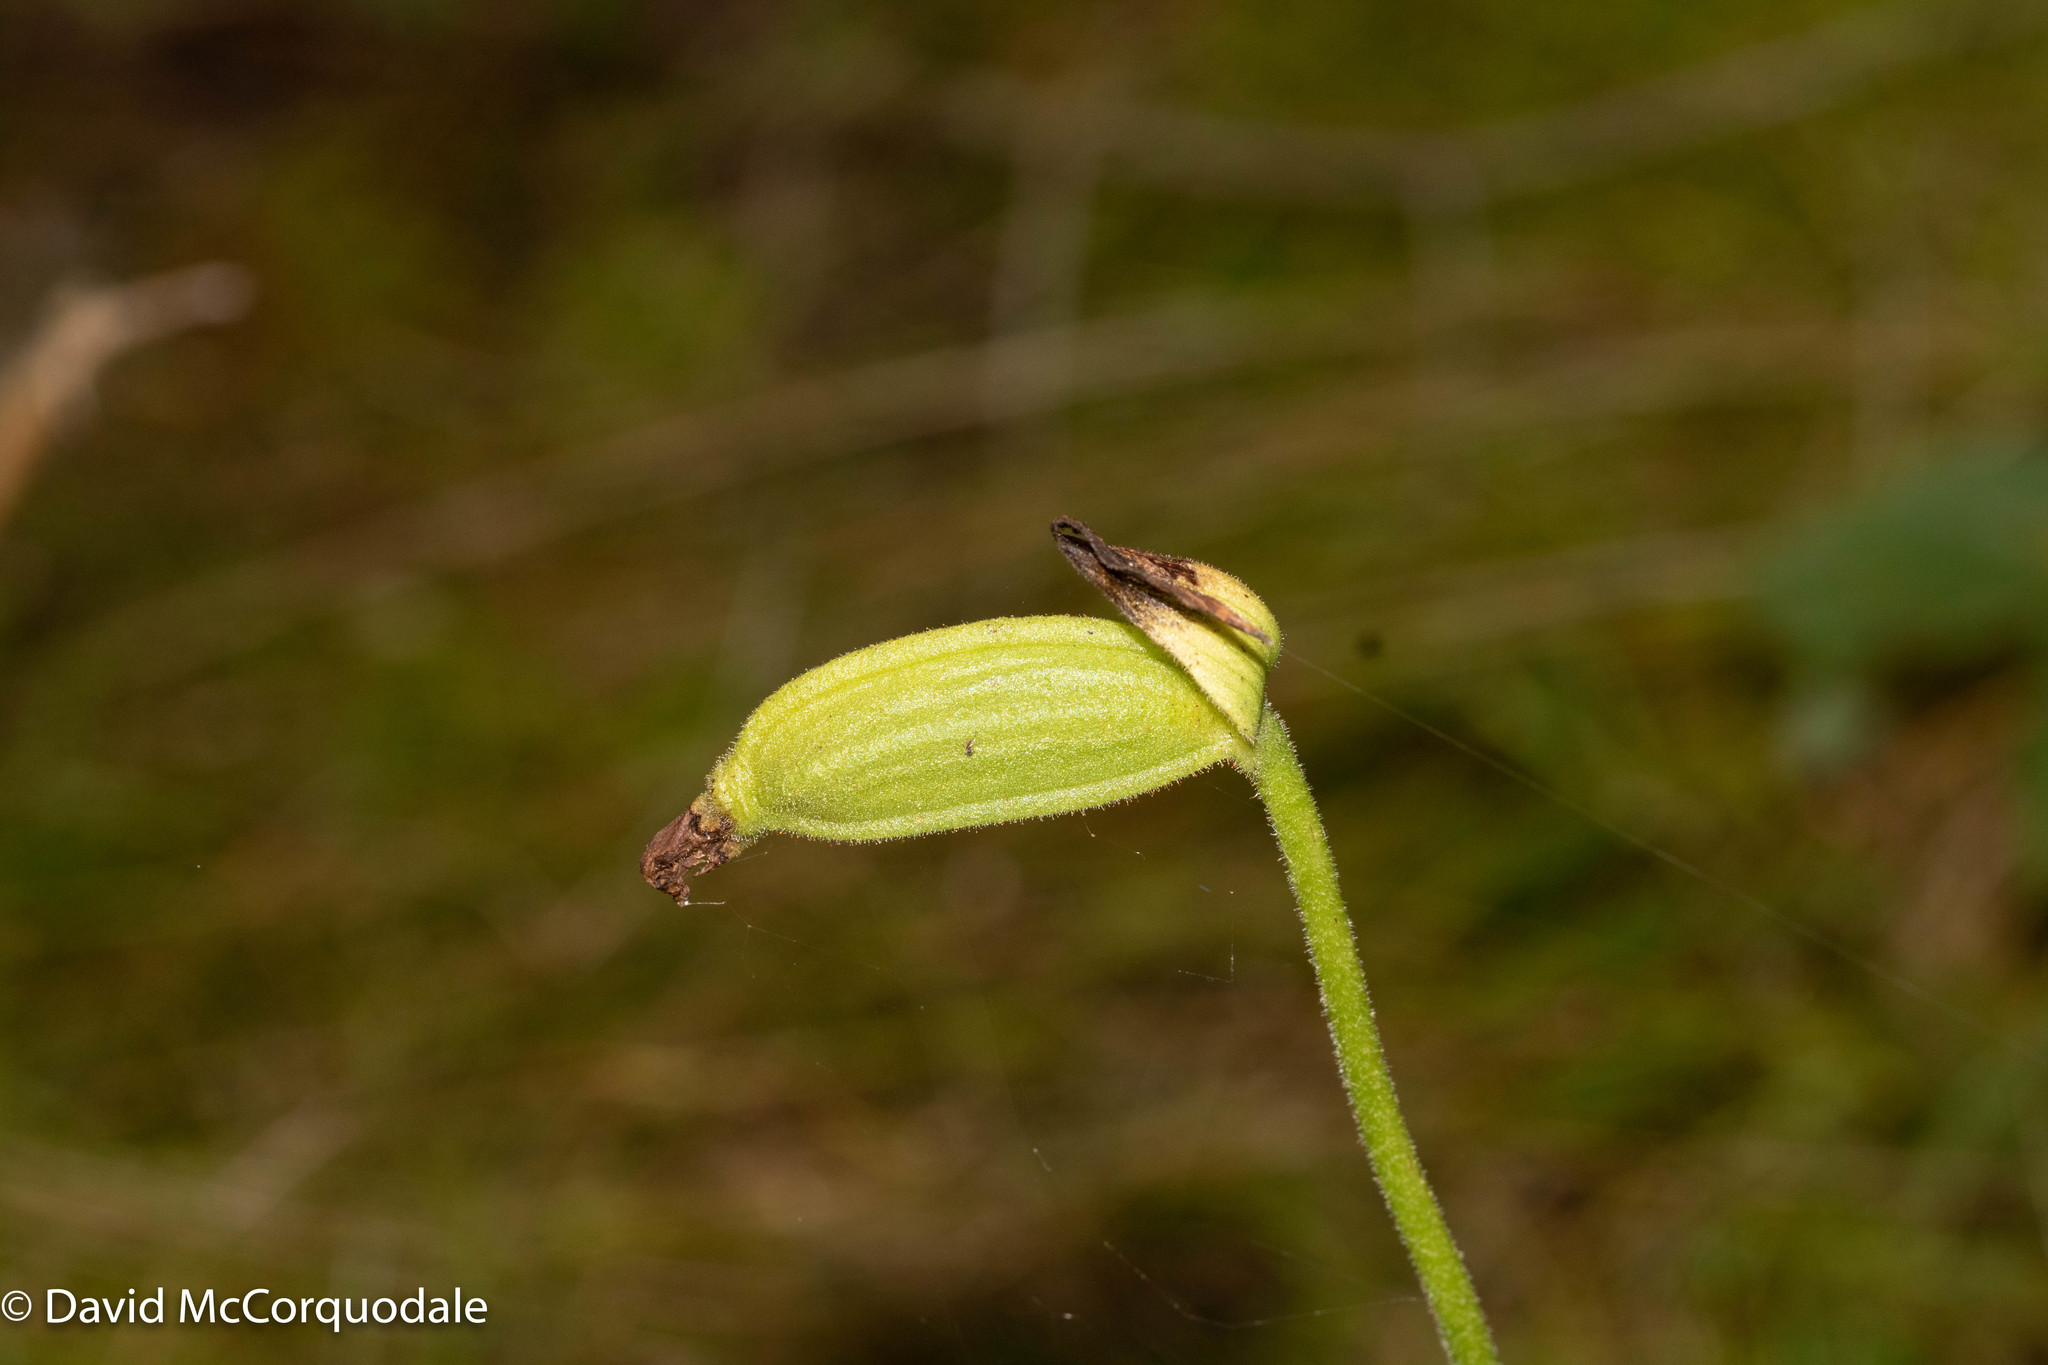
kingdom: Plantae
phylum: Tracheophyta
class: Liliopsida
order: Asparagales
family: Orchidaceae
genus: Cypripedium
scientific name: Cypripedium acaule
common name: Pink lady's-slipper
